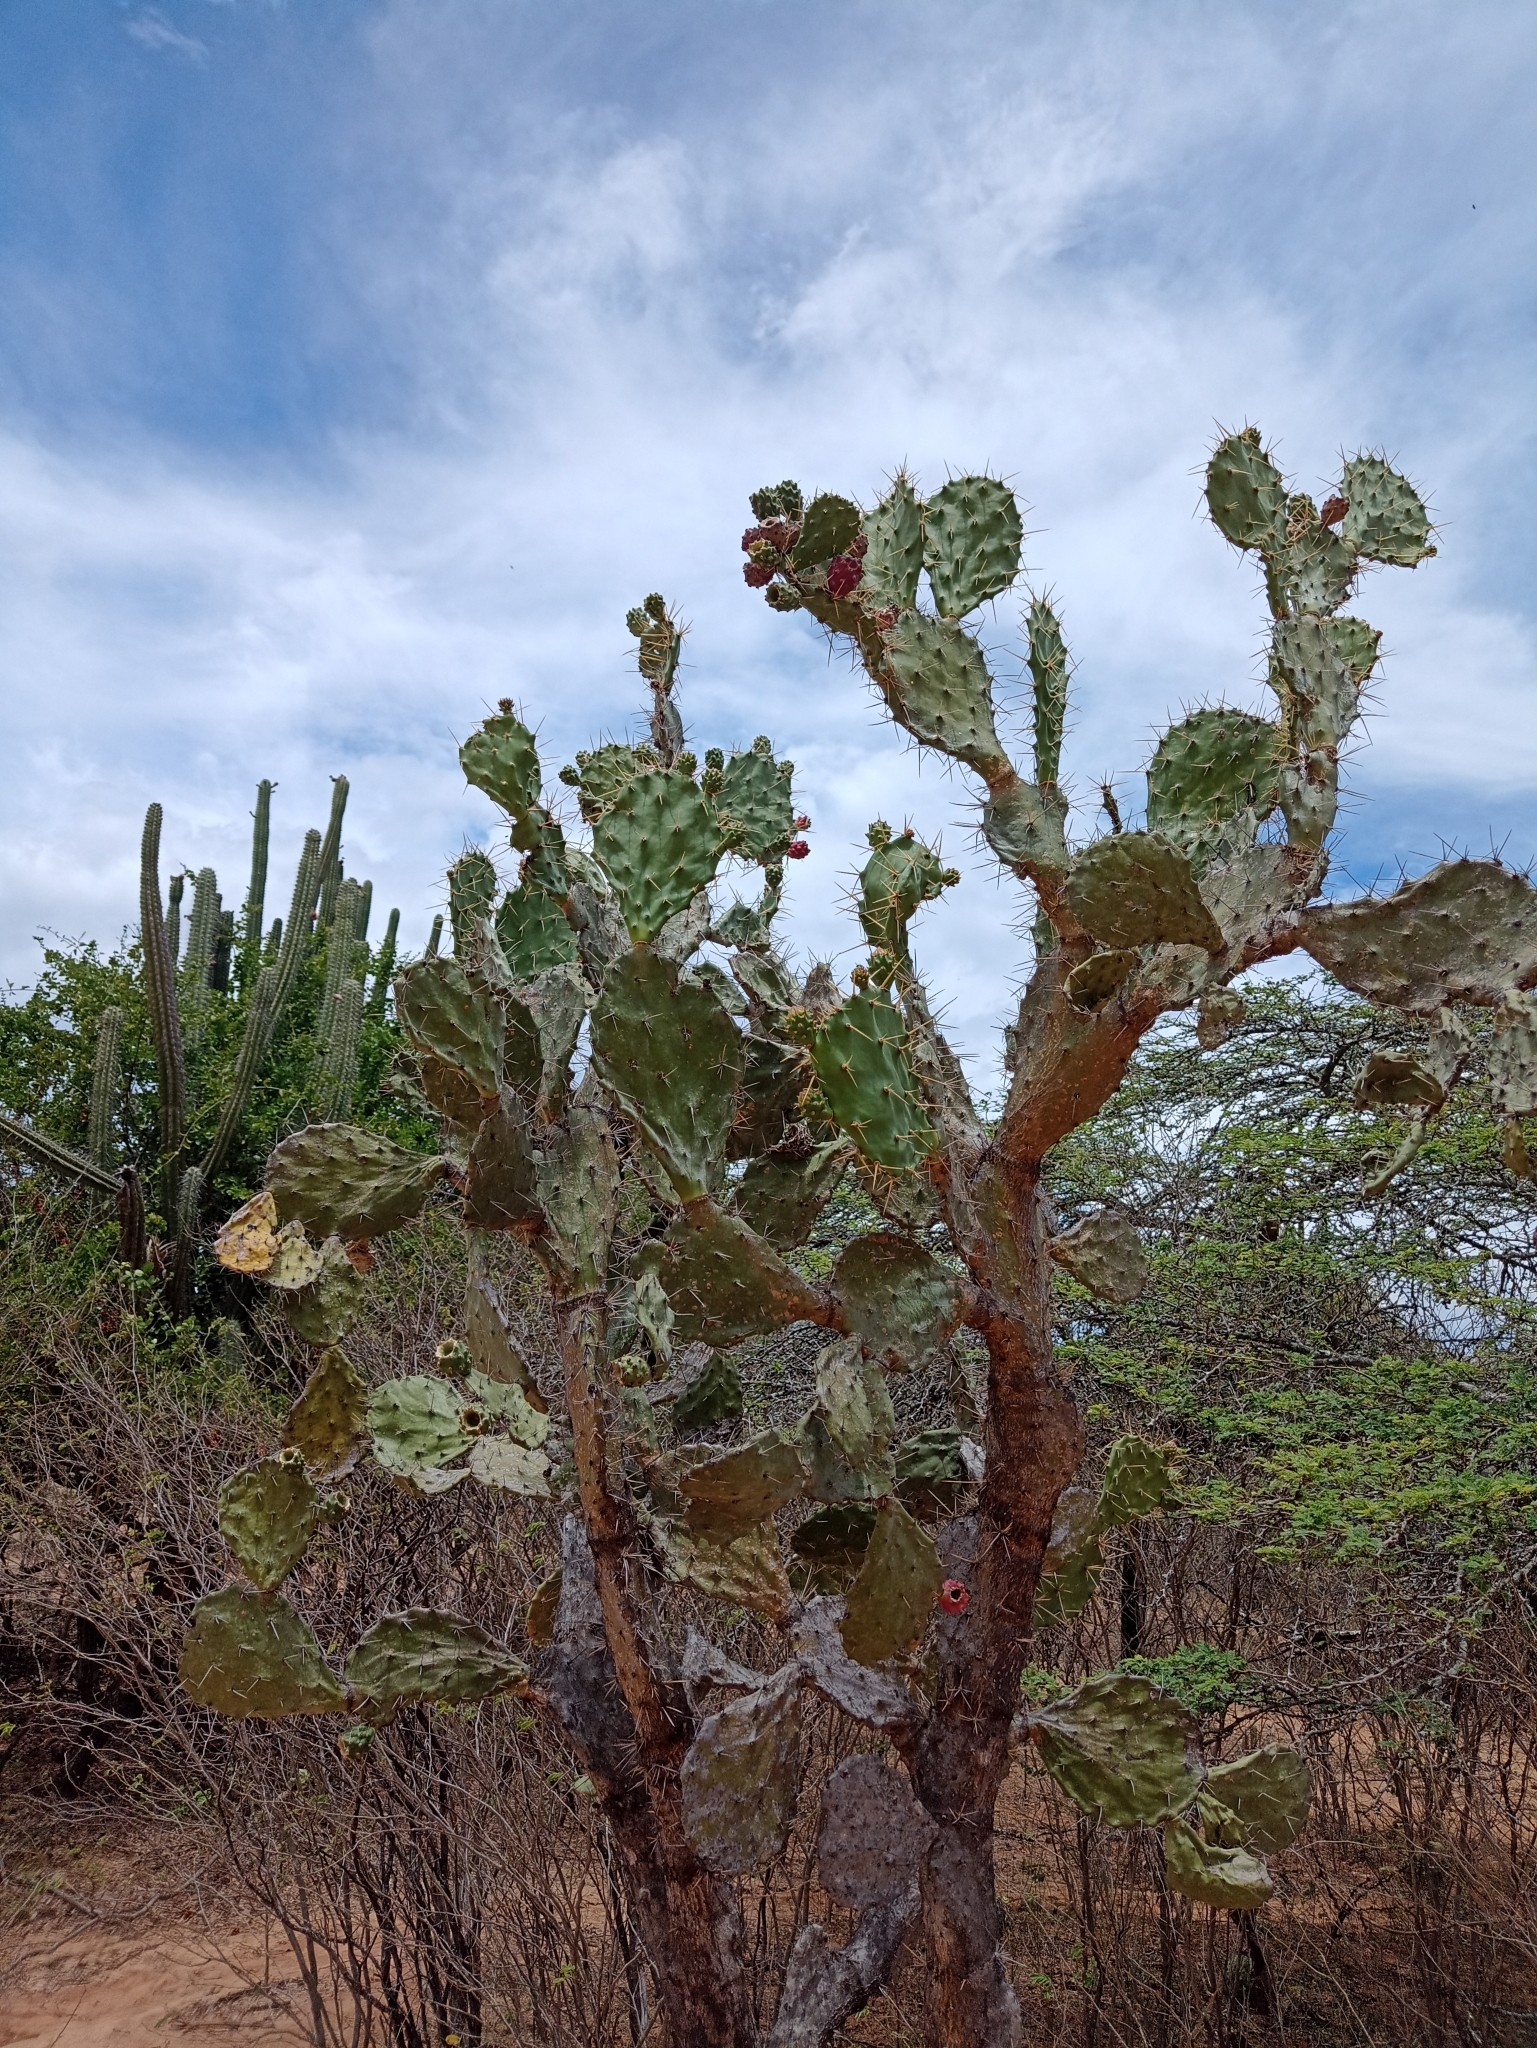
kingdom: Plantae
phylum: Tracheophyta
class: Magnoliopsida
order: Caryophyllales
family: Cactaceae
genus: Opuntia
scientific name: Opuntia elatior
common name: Tuna
